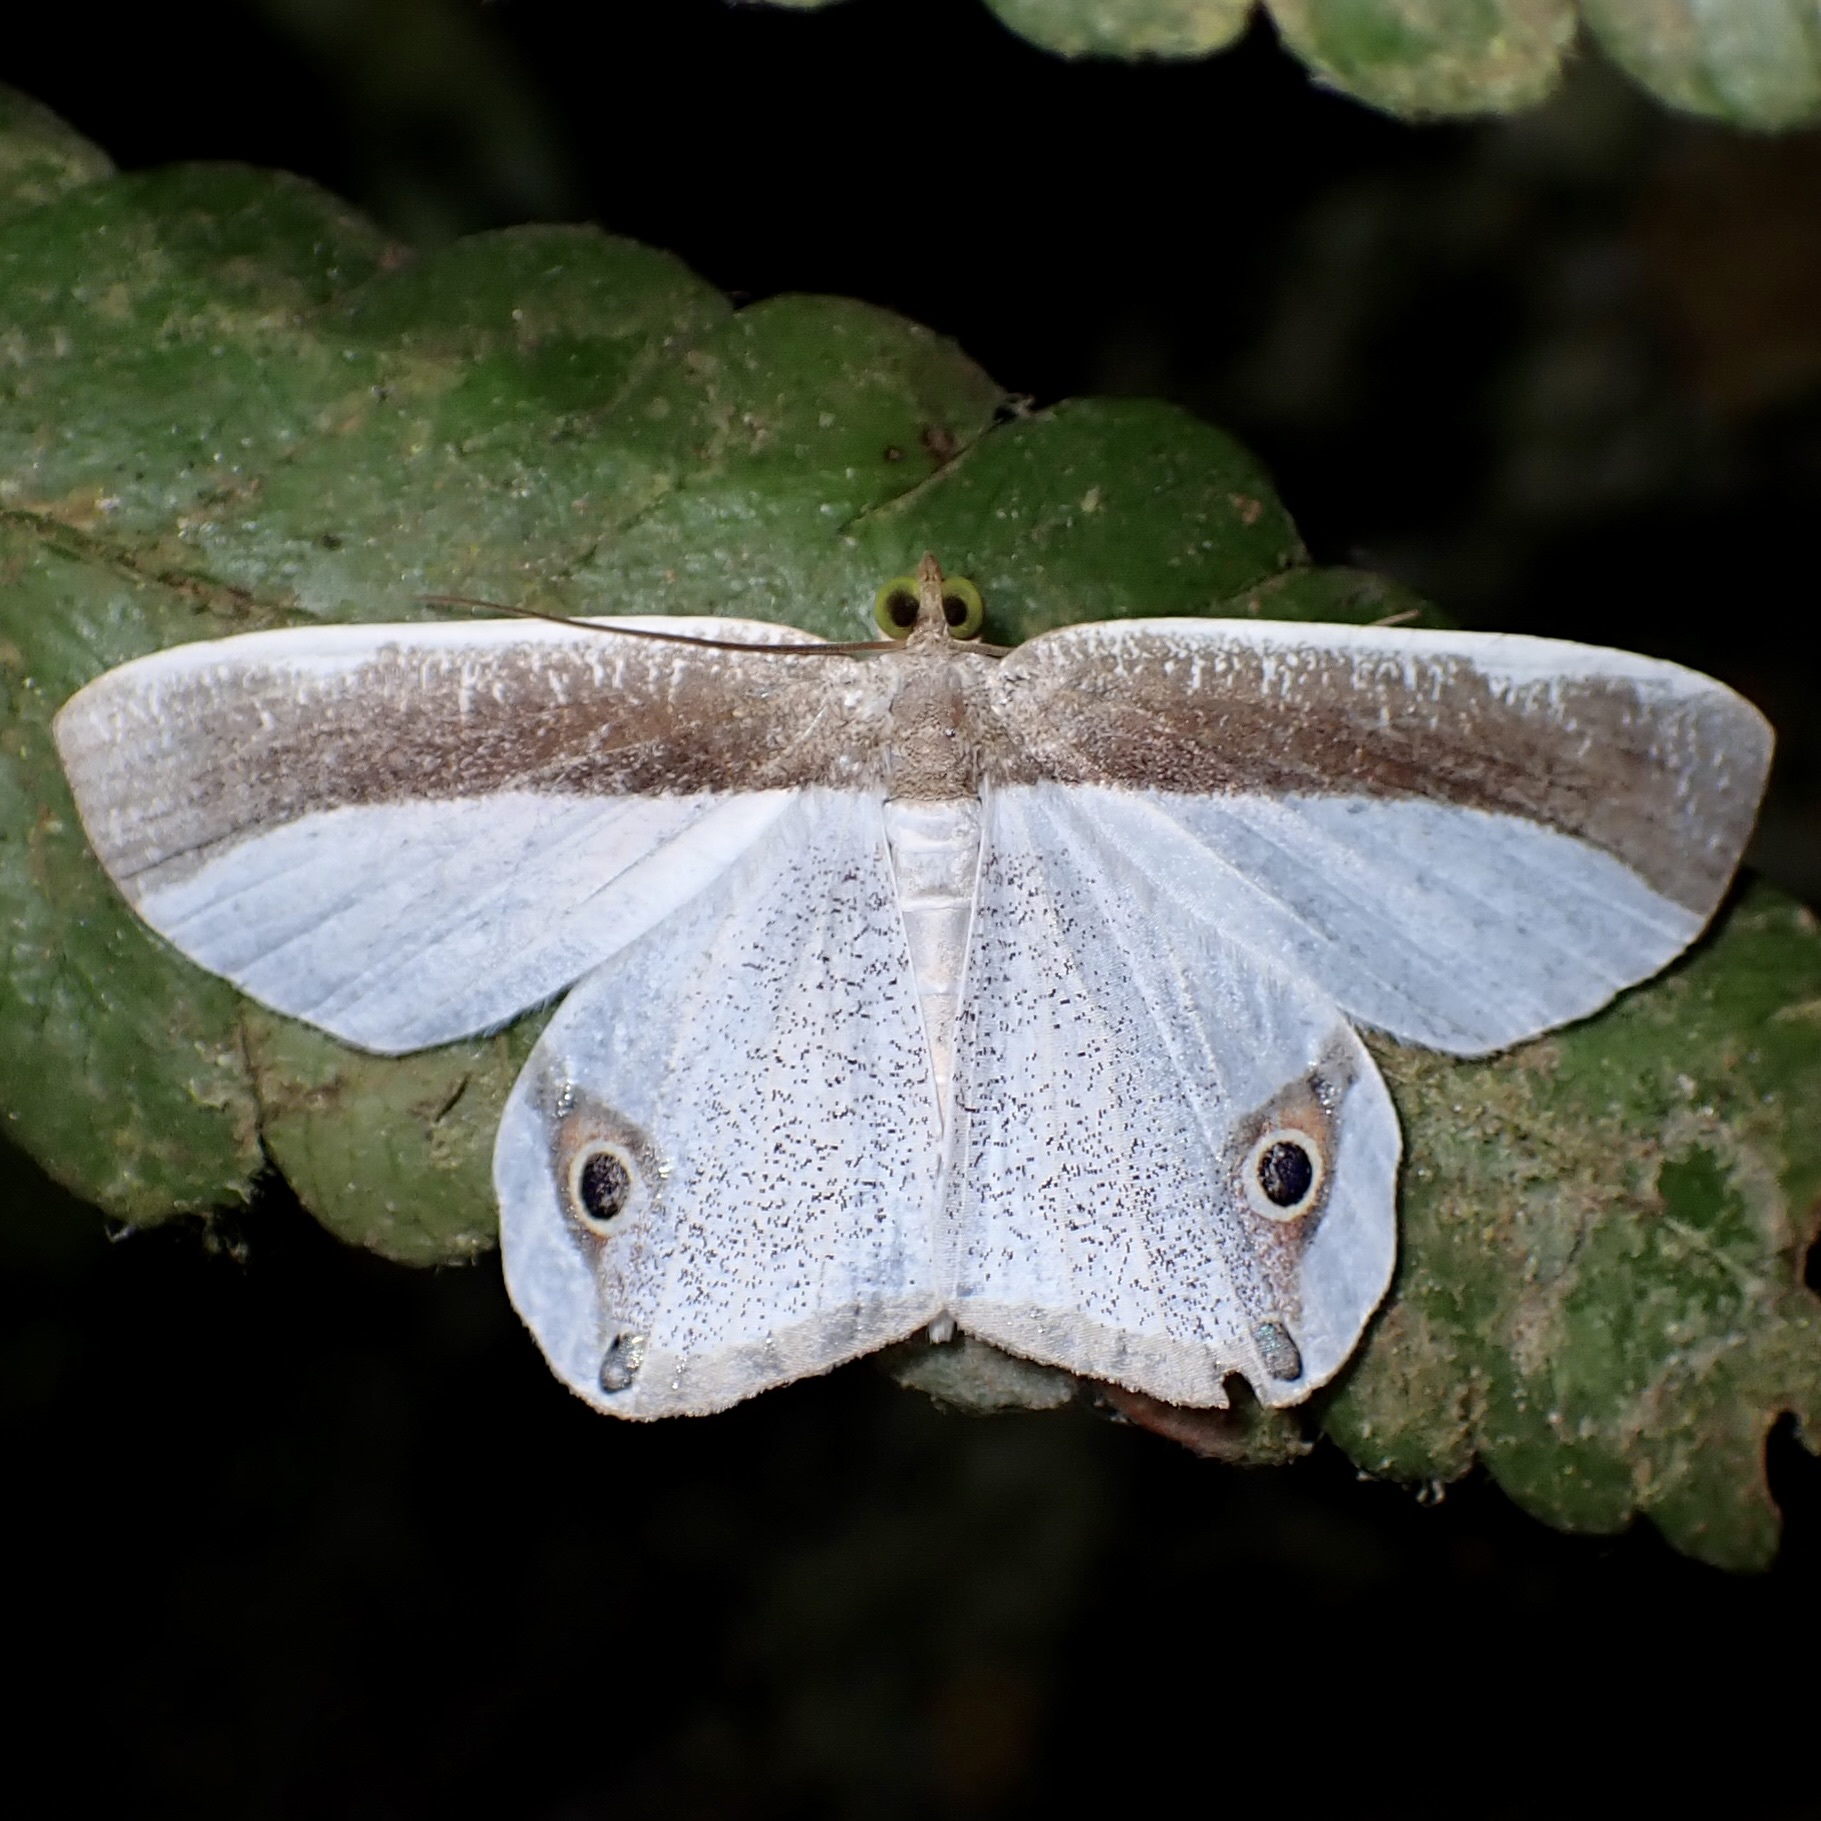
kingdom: Animalia
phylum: Arthropoda
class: Insecta
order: Lepidoptera
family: Geometridae
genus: Opisthoxia
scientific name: Opisthoxia amabilis
